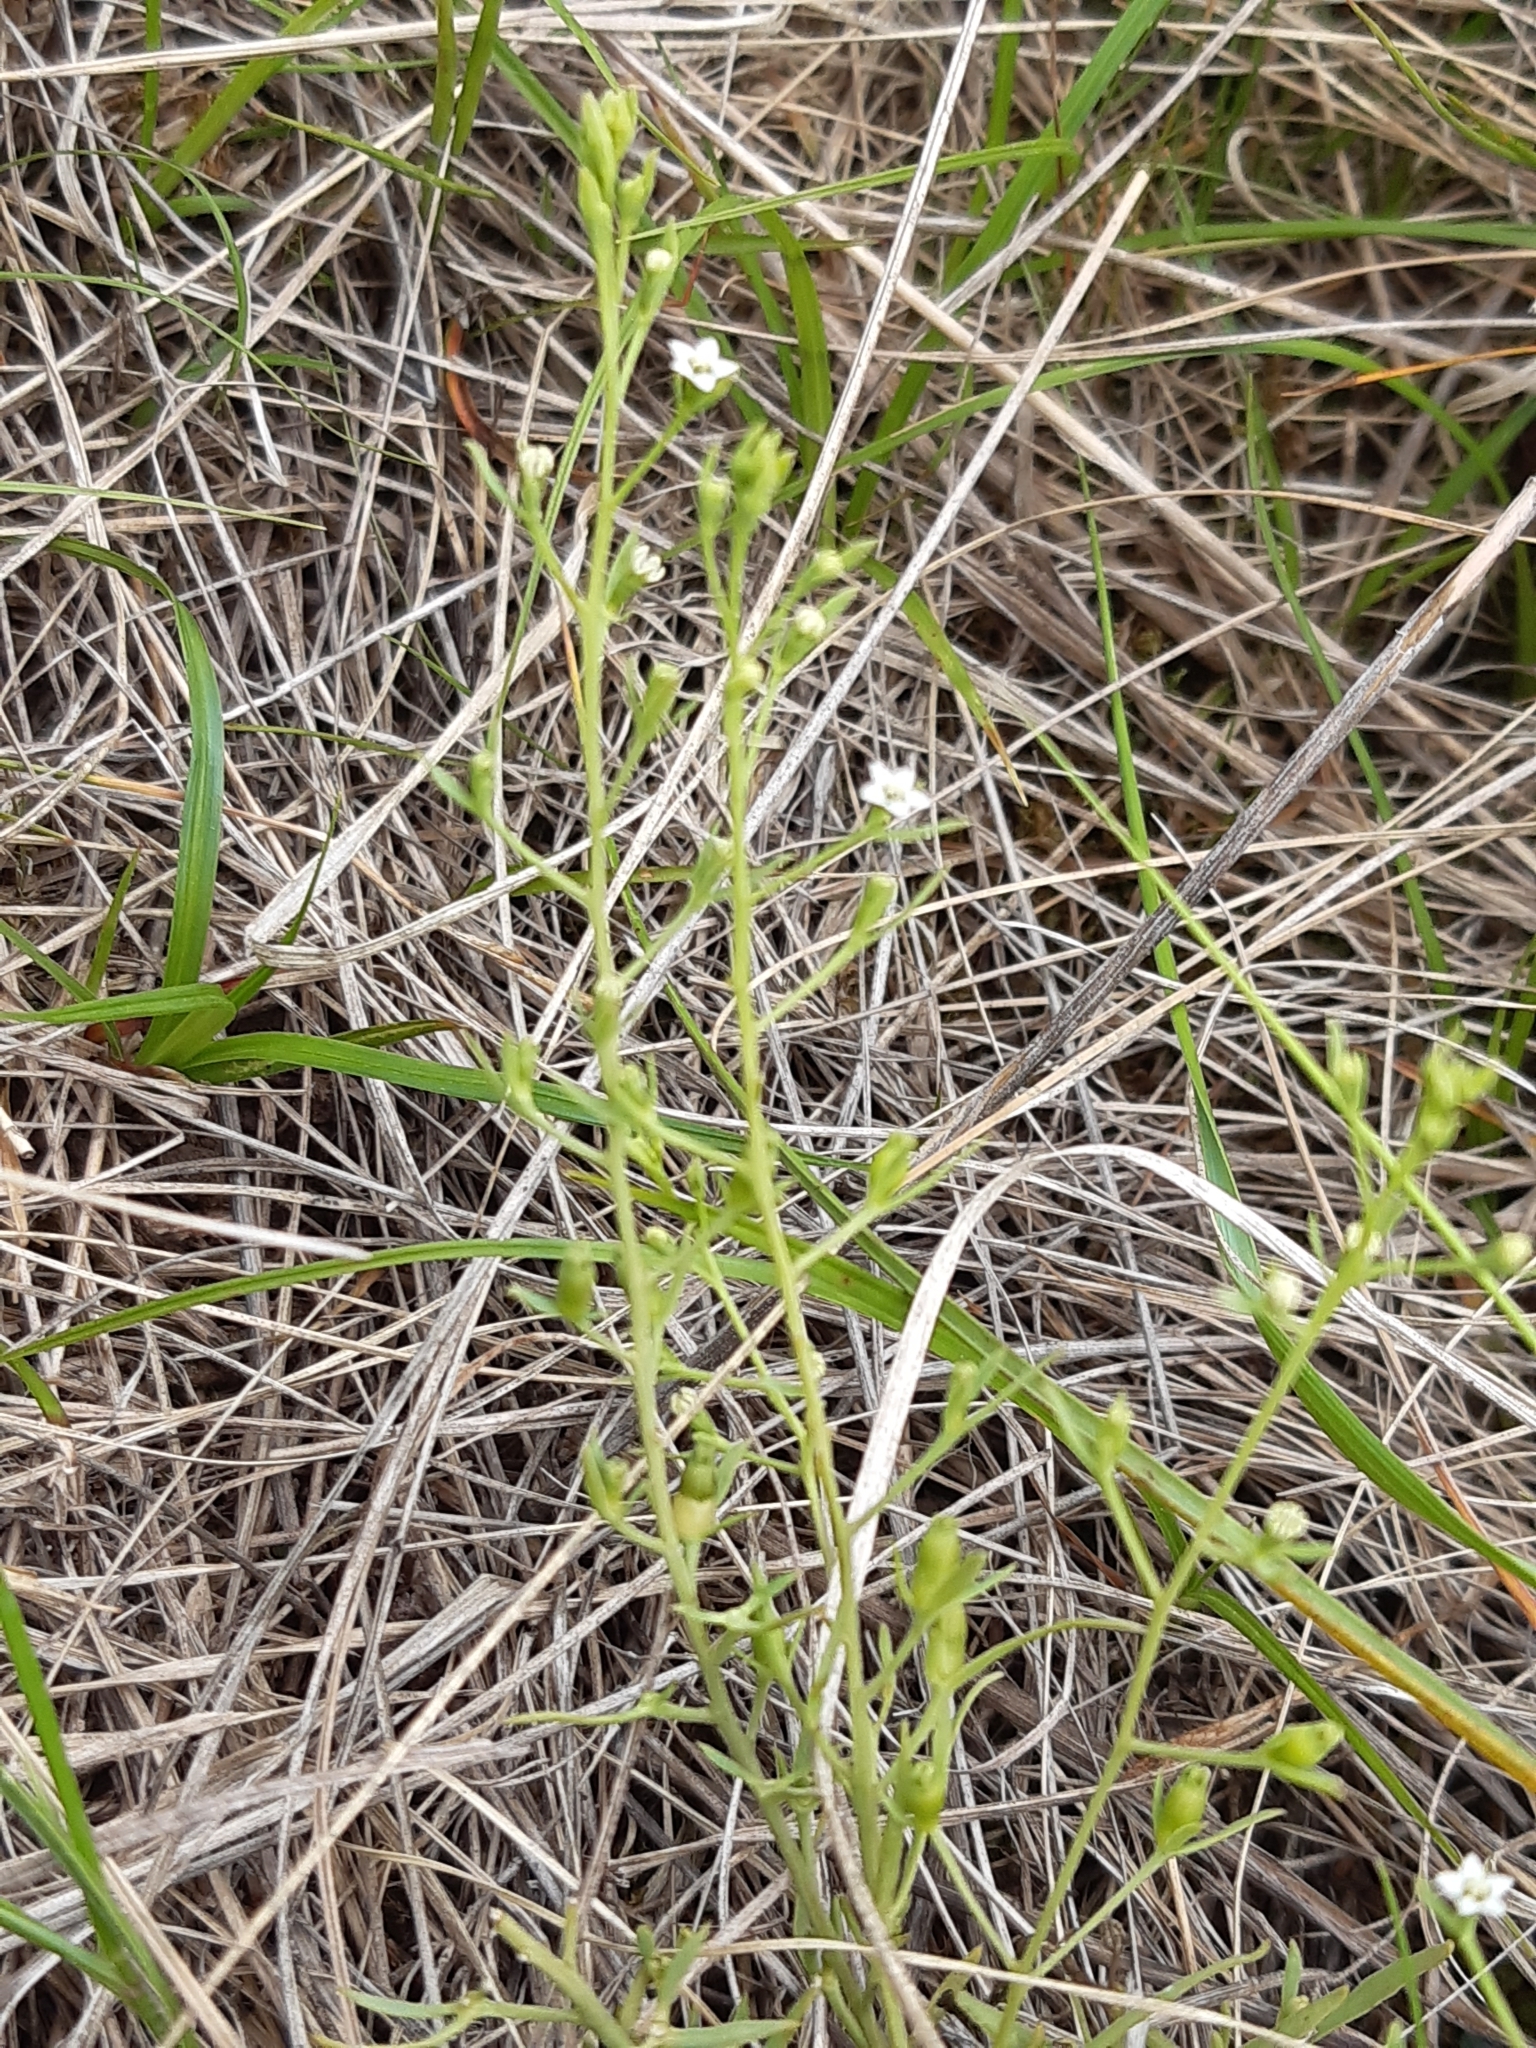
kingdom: Plantae
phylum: Tracheophyta
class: Magnoliopsida
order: Santalales
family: Thesiaceae
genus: Thesium
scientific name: Thesium ramosum
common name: Field thesium
